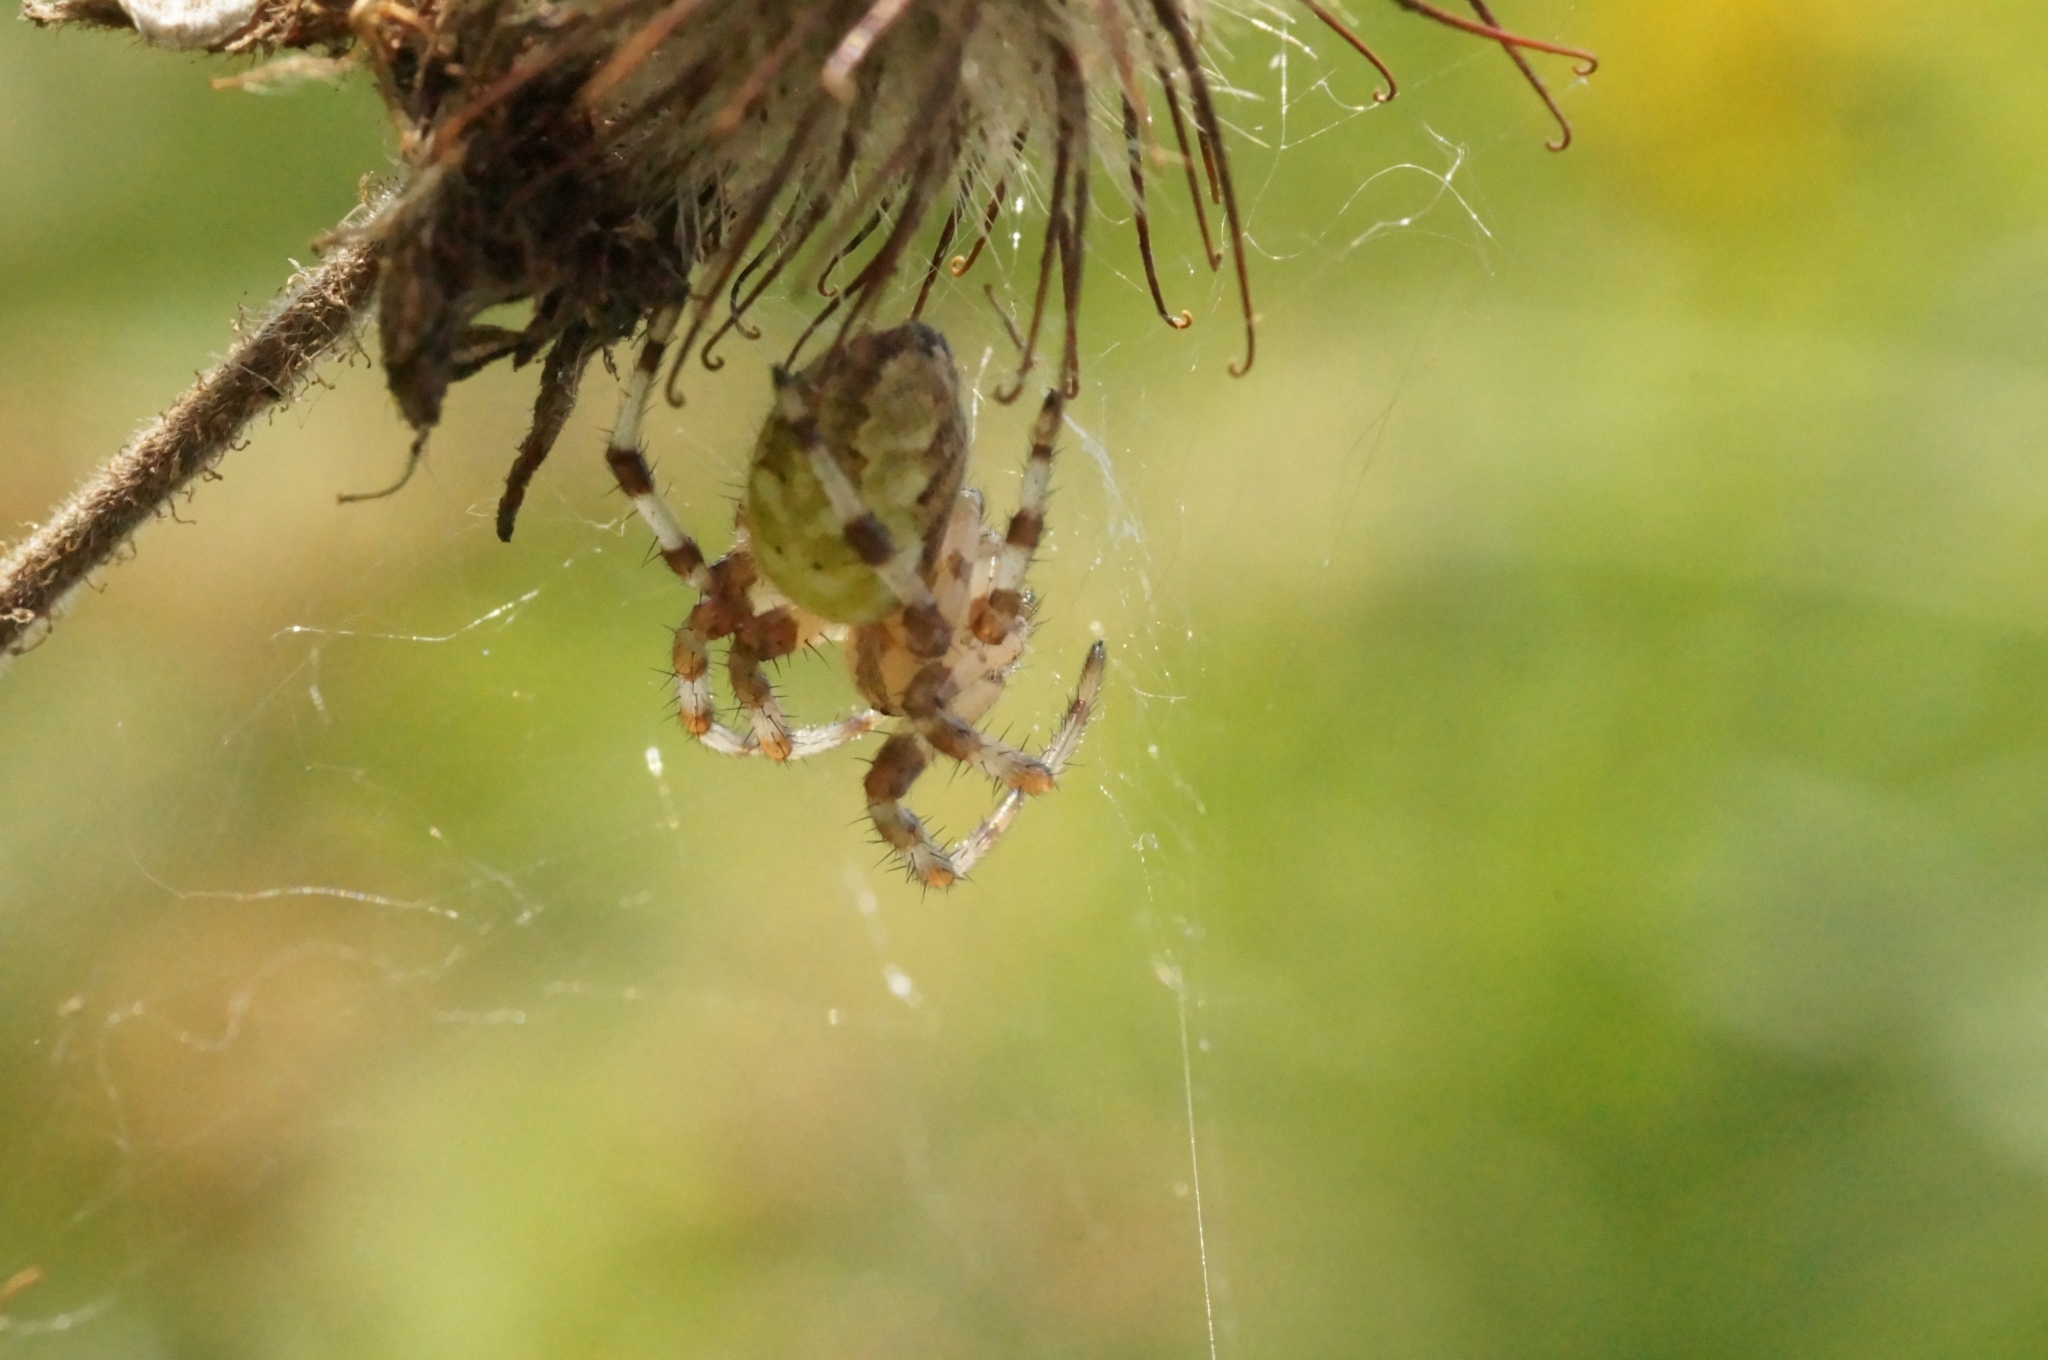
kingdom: Animalia
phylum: Arthropoda
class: Arachnida
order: Araneae
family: Araneidae
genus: Araneus
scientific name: Araneus quadratus
